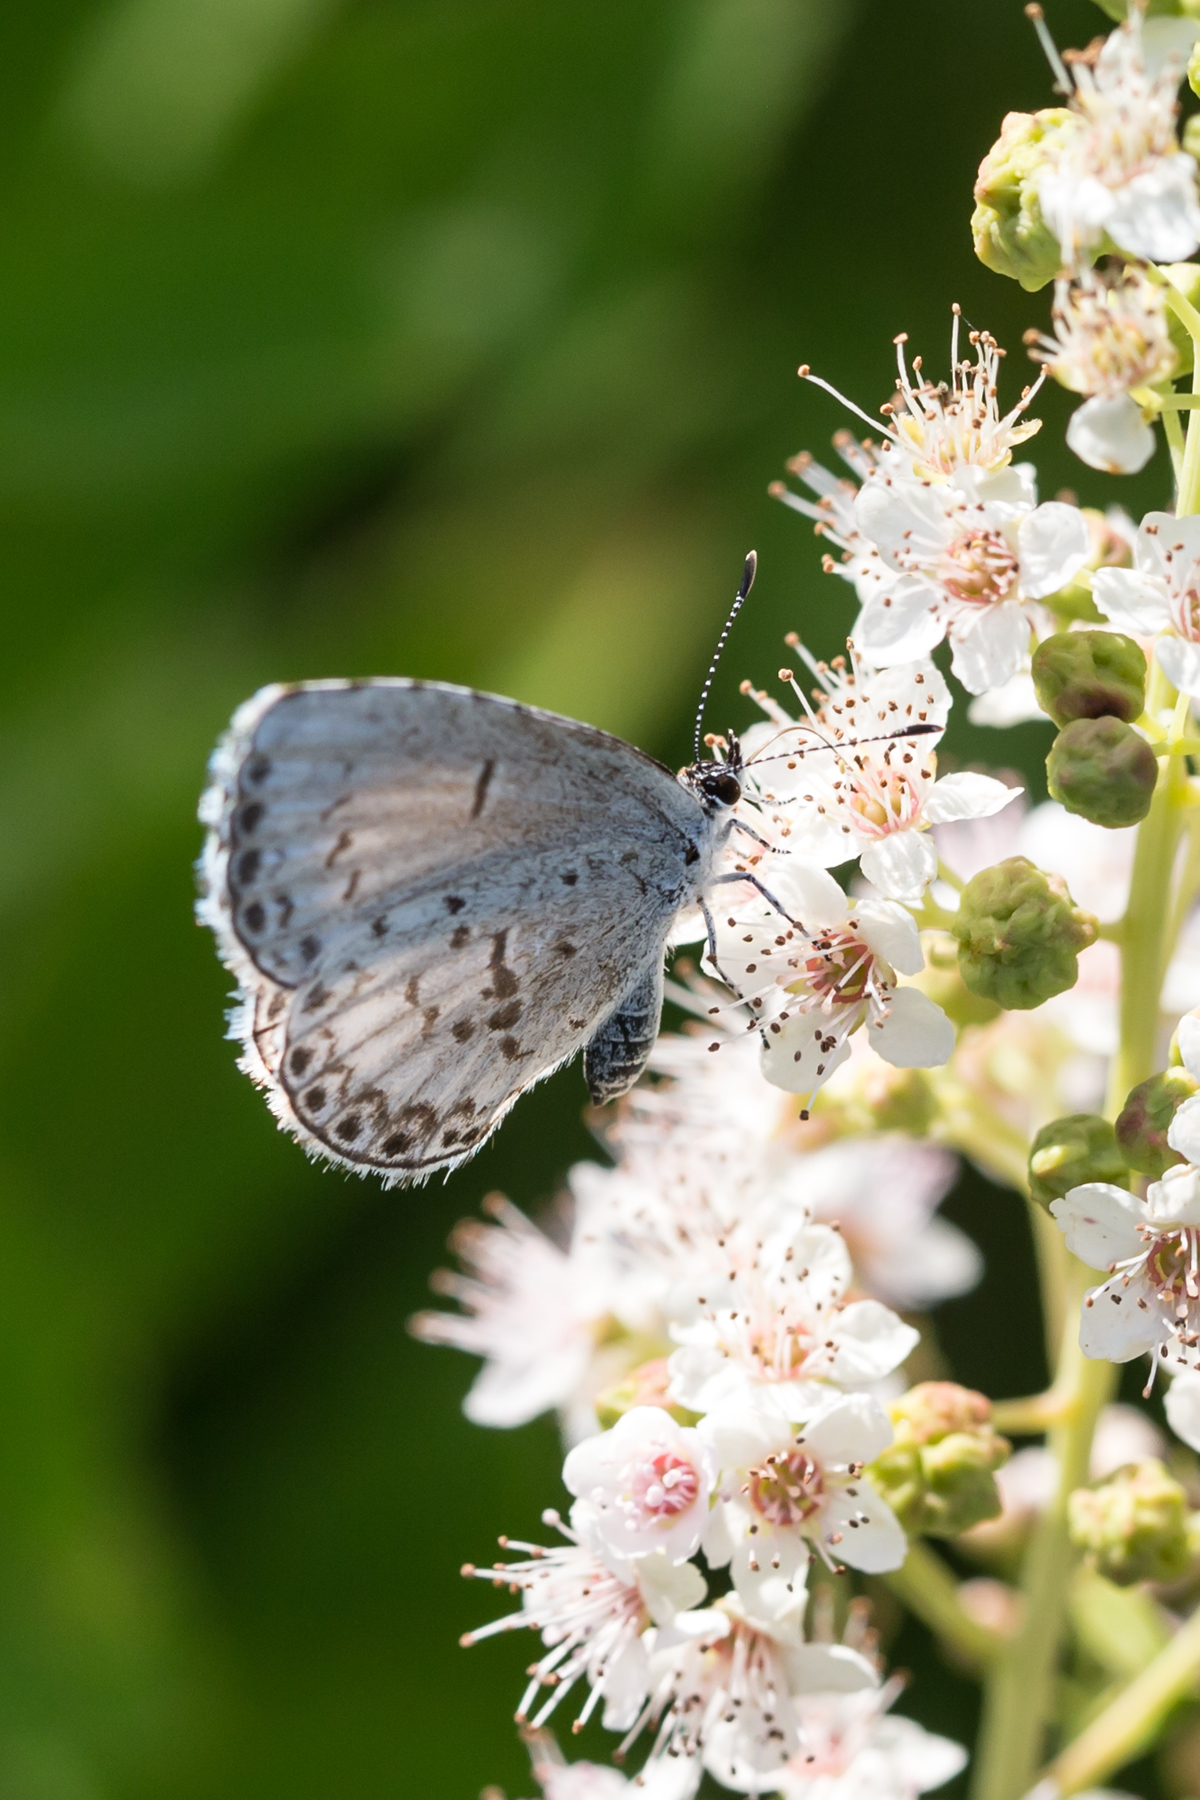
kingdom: Animalia
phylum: Arthropoda
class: Insecta
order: Lepidoptera
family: Lycaenidae
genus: Celastrina
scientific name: Celastrina lucia
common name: Lucia azure
